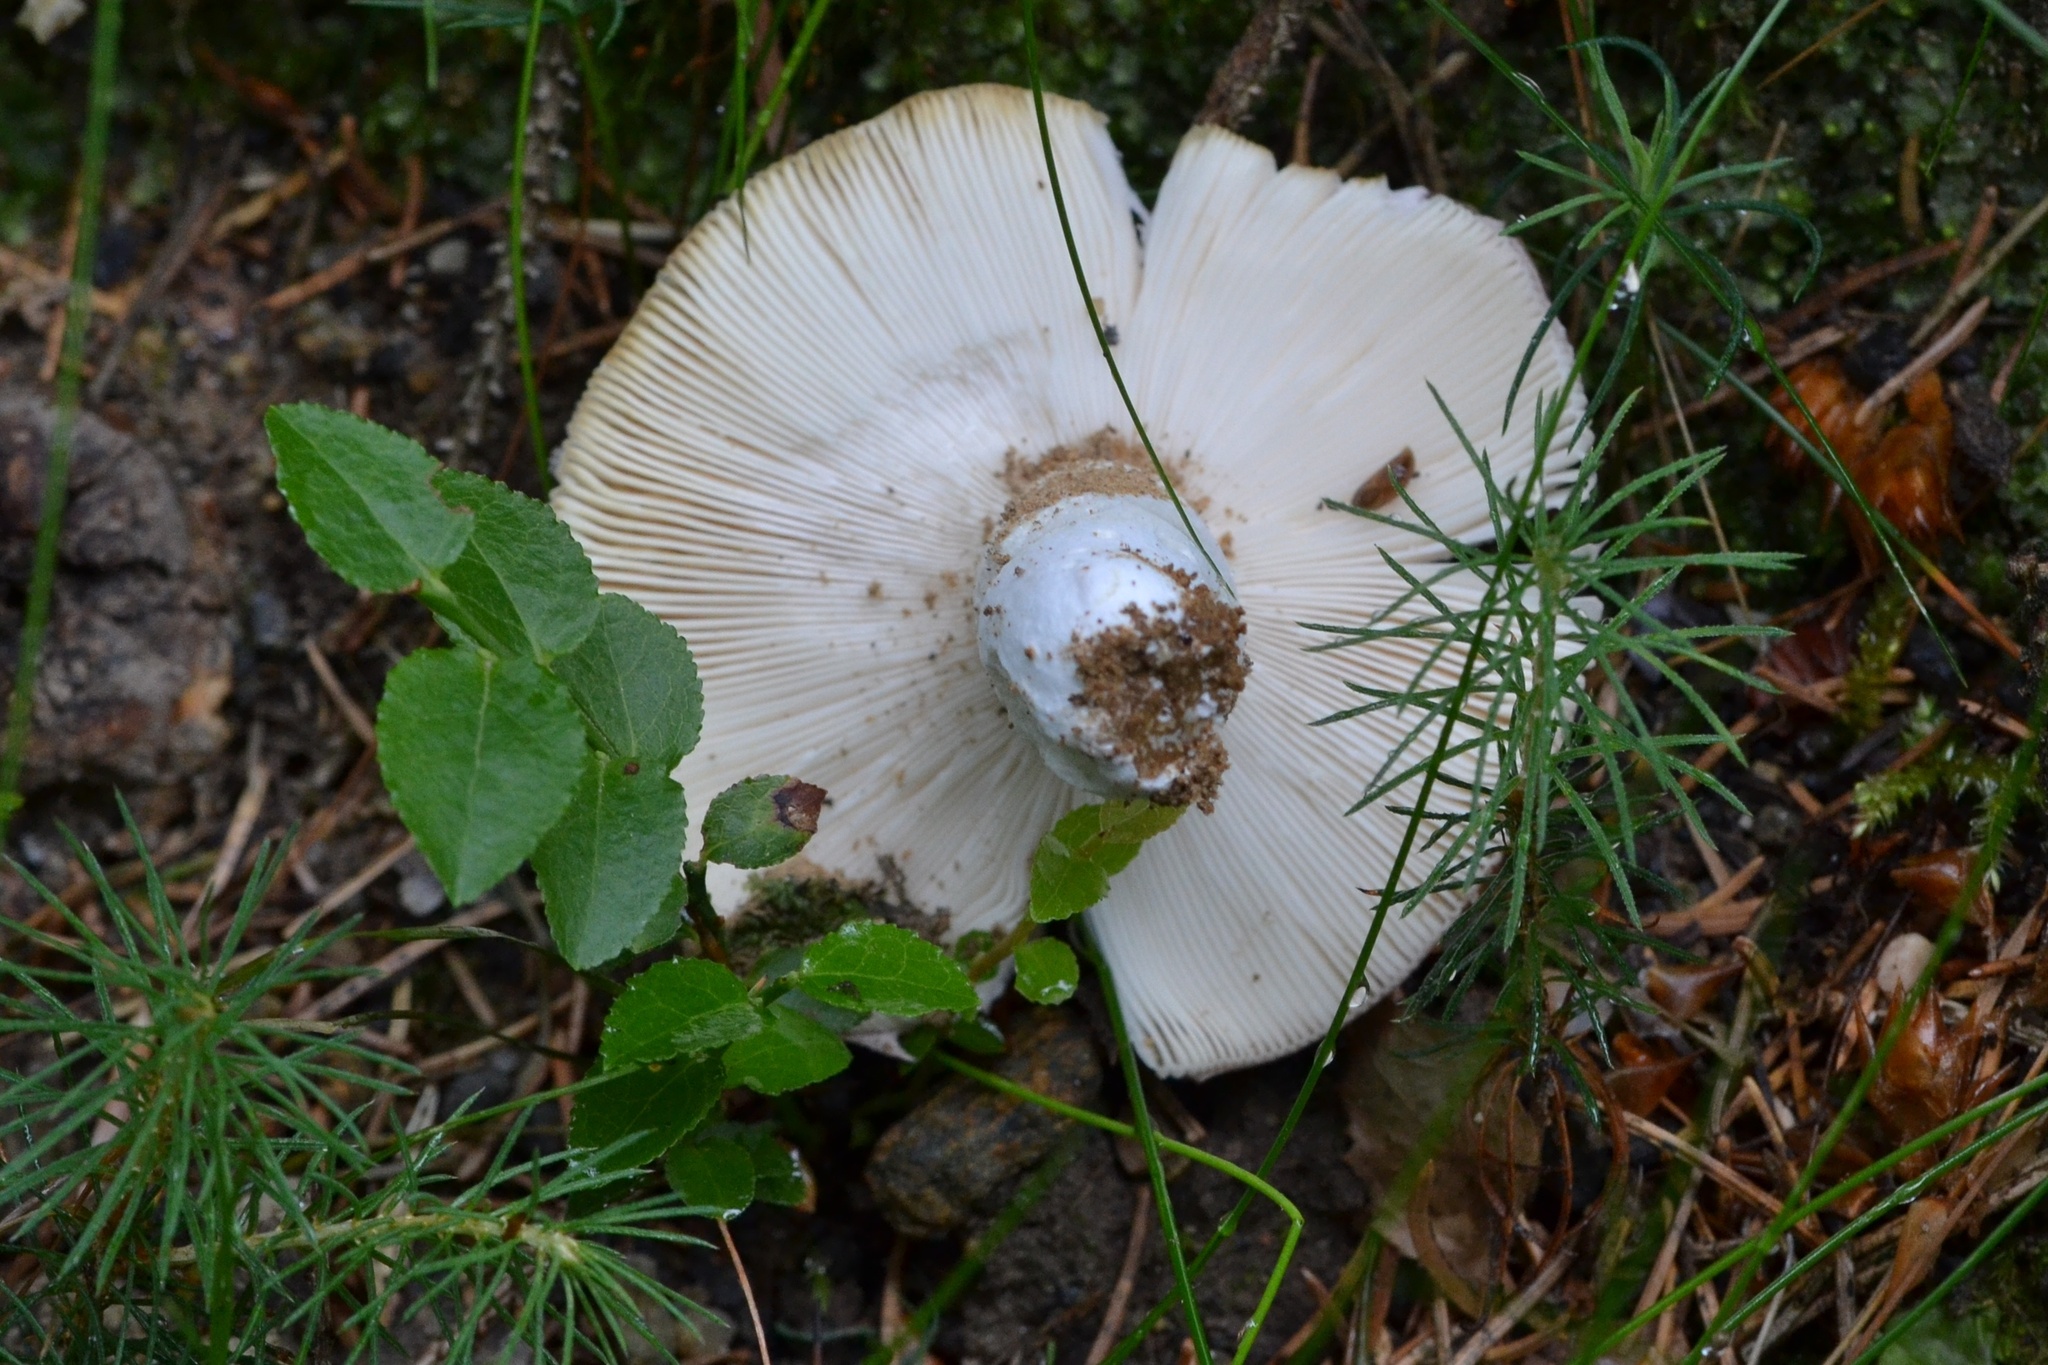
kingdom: Fungi
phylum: Basidiomycota
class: Agaricomycetes
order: Russulales
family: Russulaceae
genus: Russula
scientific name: Russula vesca
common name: Bare-toothed russula
